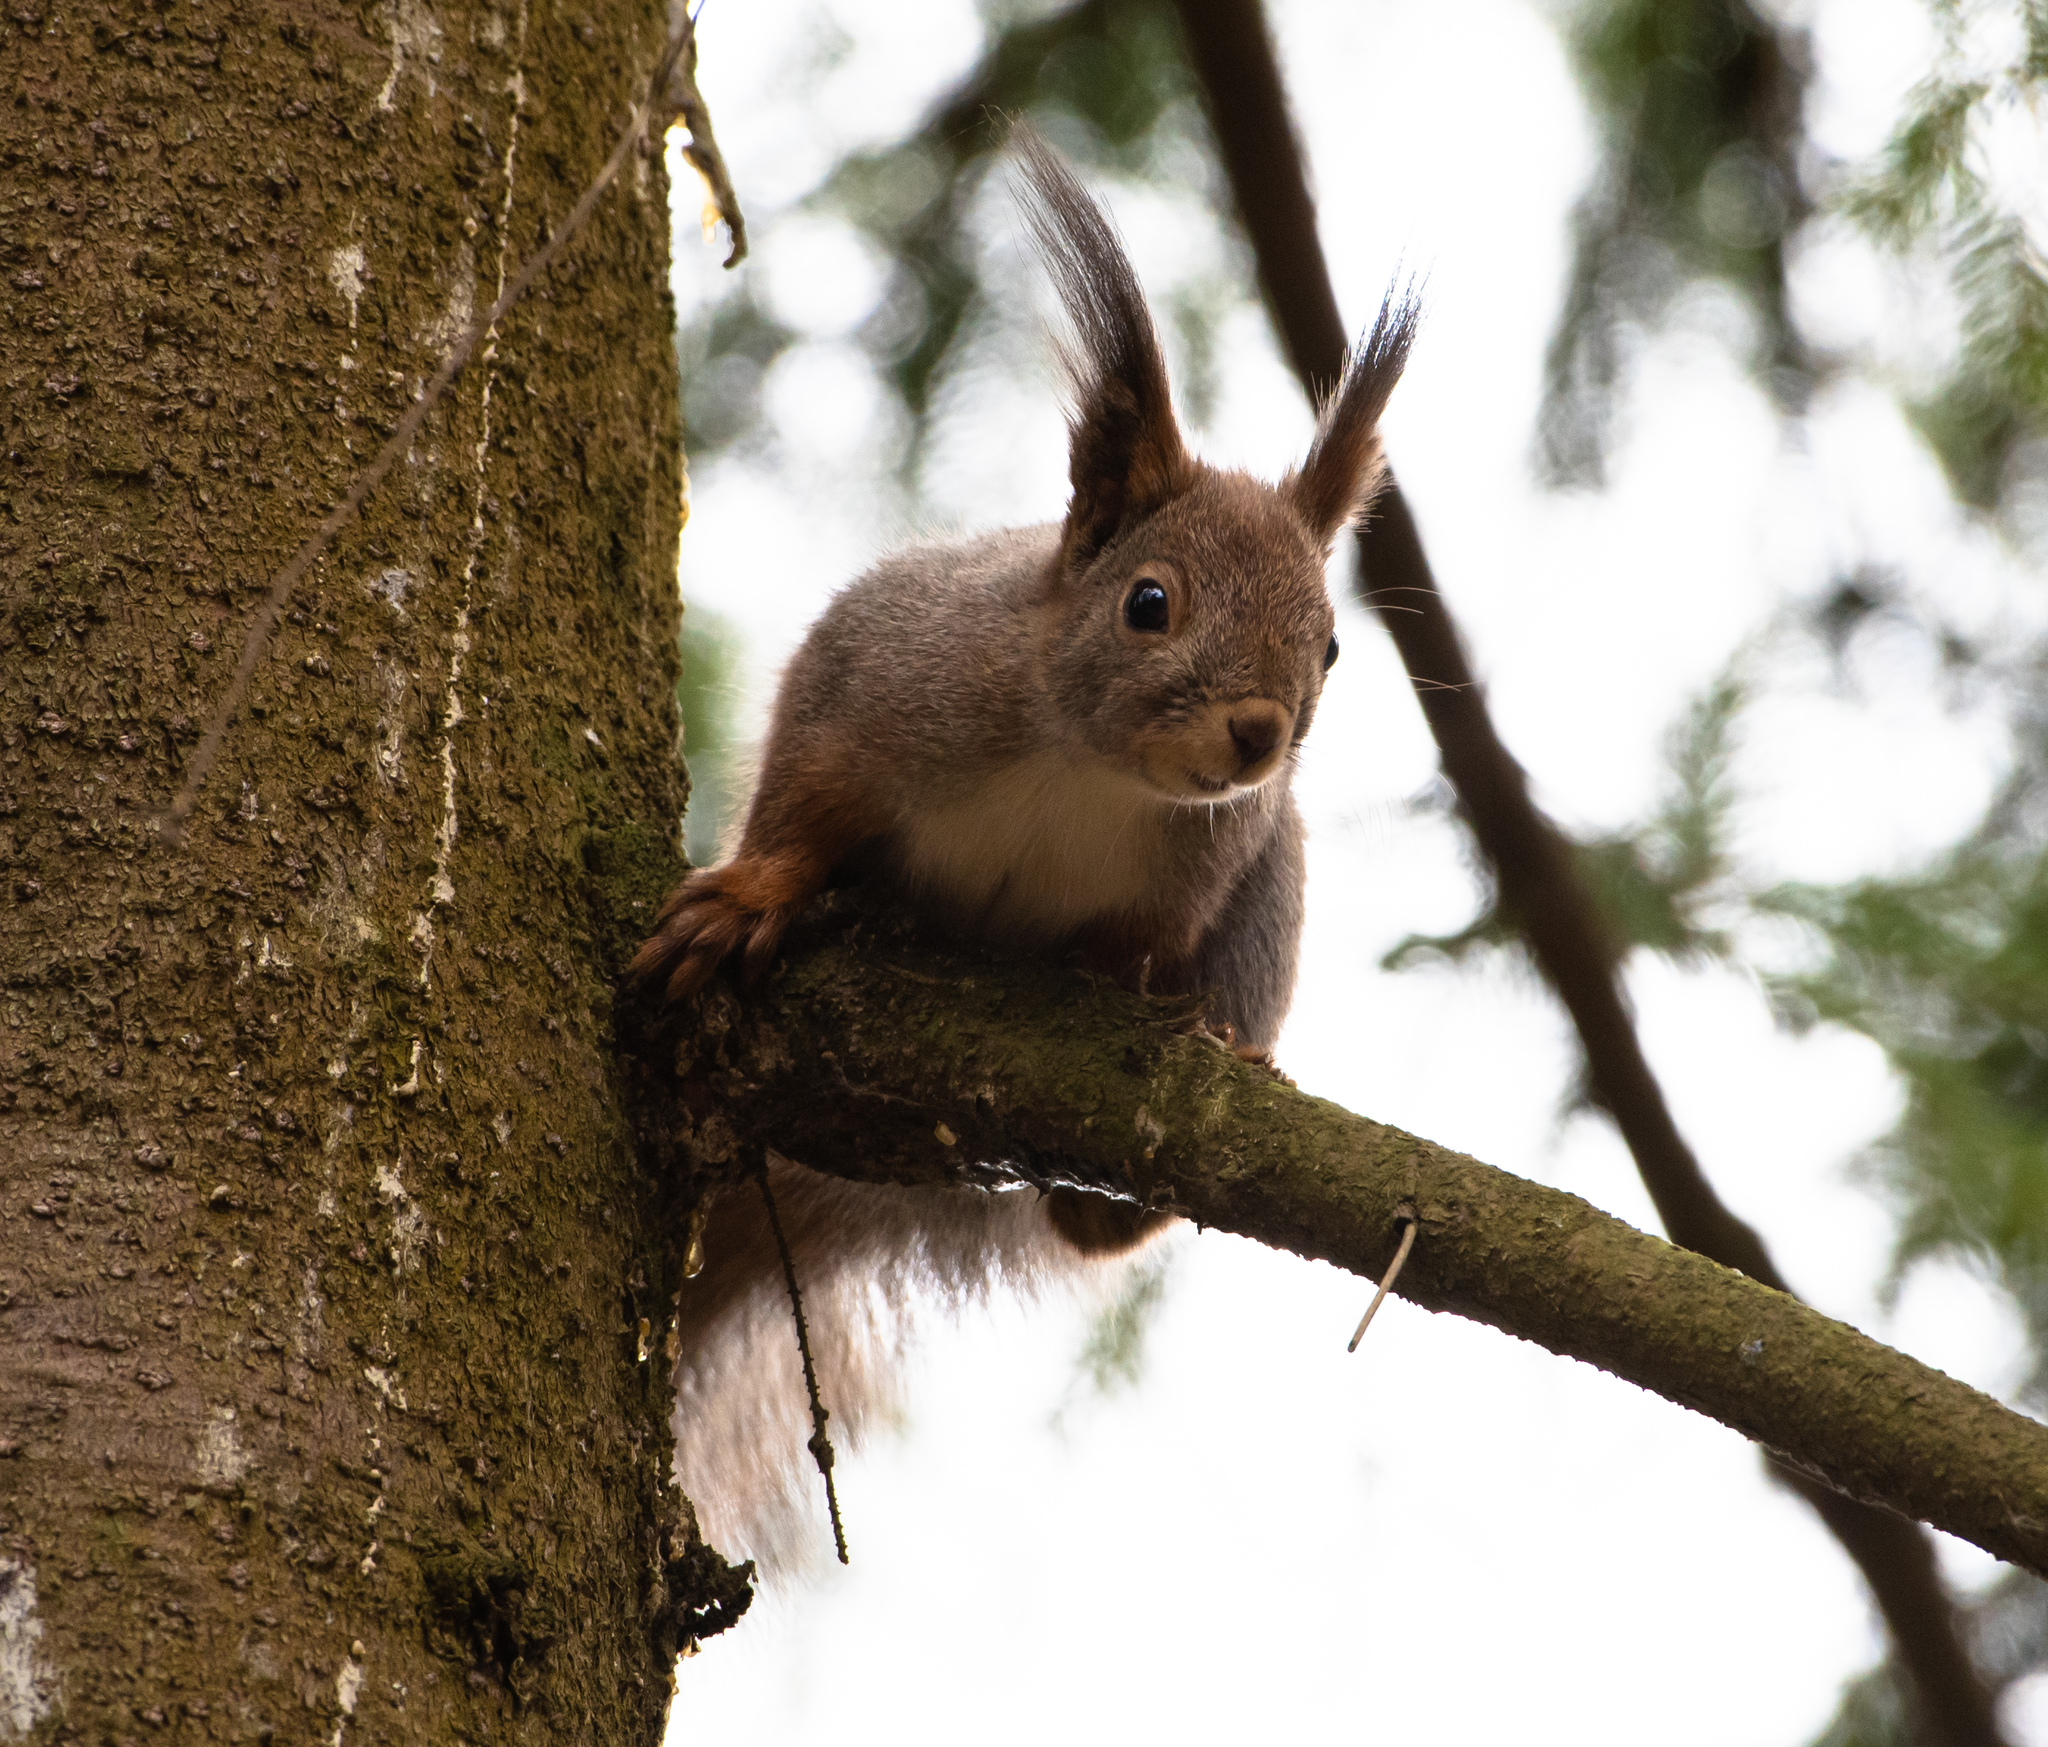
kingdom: Animalia
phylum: Chordata
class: Mammalia
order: Rodentia
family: Sciuridae
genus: Sciurus
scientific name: Sciurus vulgaris
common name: Eurasian red squirrel
